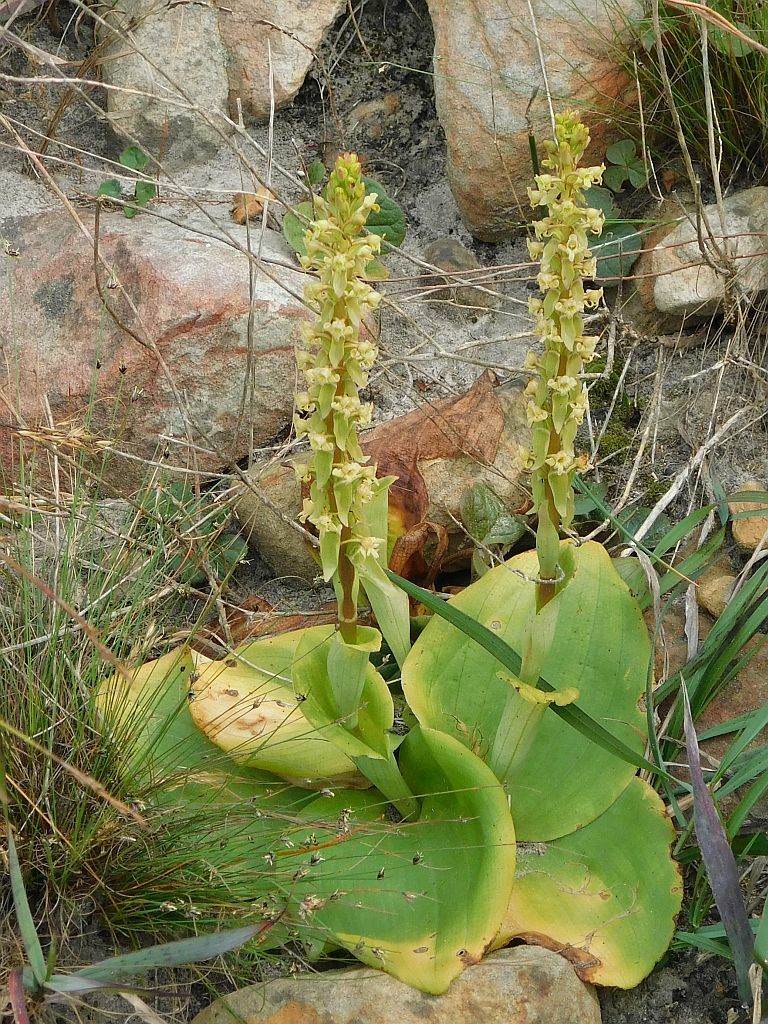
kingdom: Plantae
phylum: Tracheophyta
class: Liliopsida
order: Asparagales
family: Orchidaceae
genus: Satyrium
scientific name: Satyrium humile
